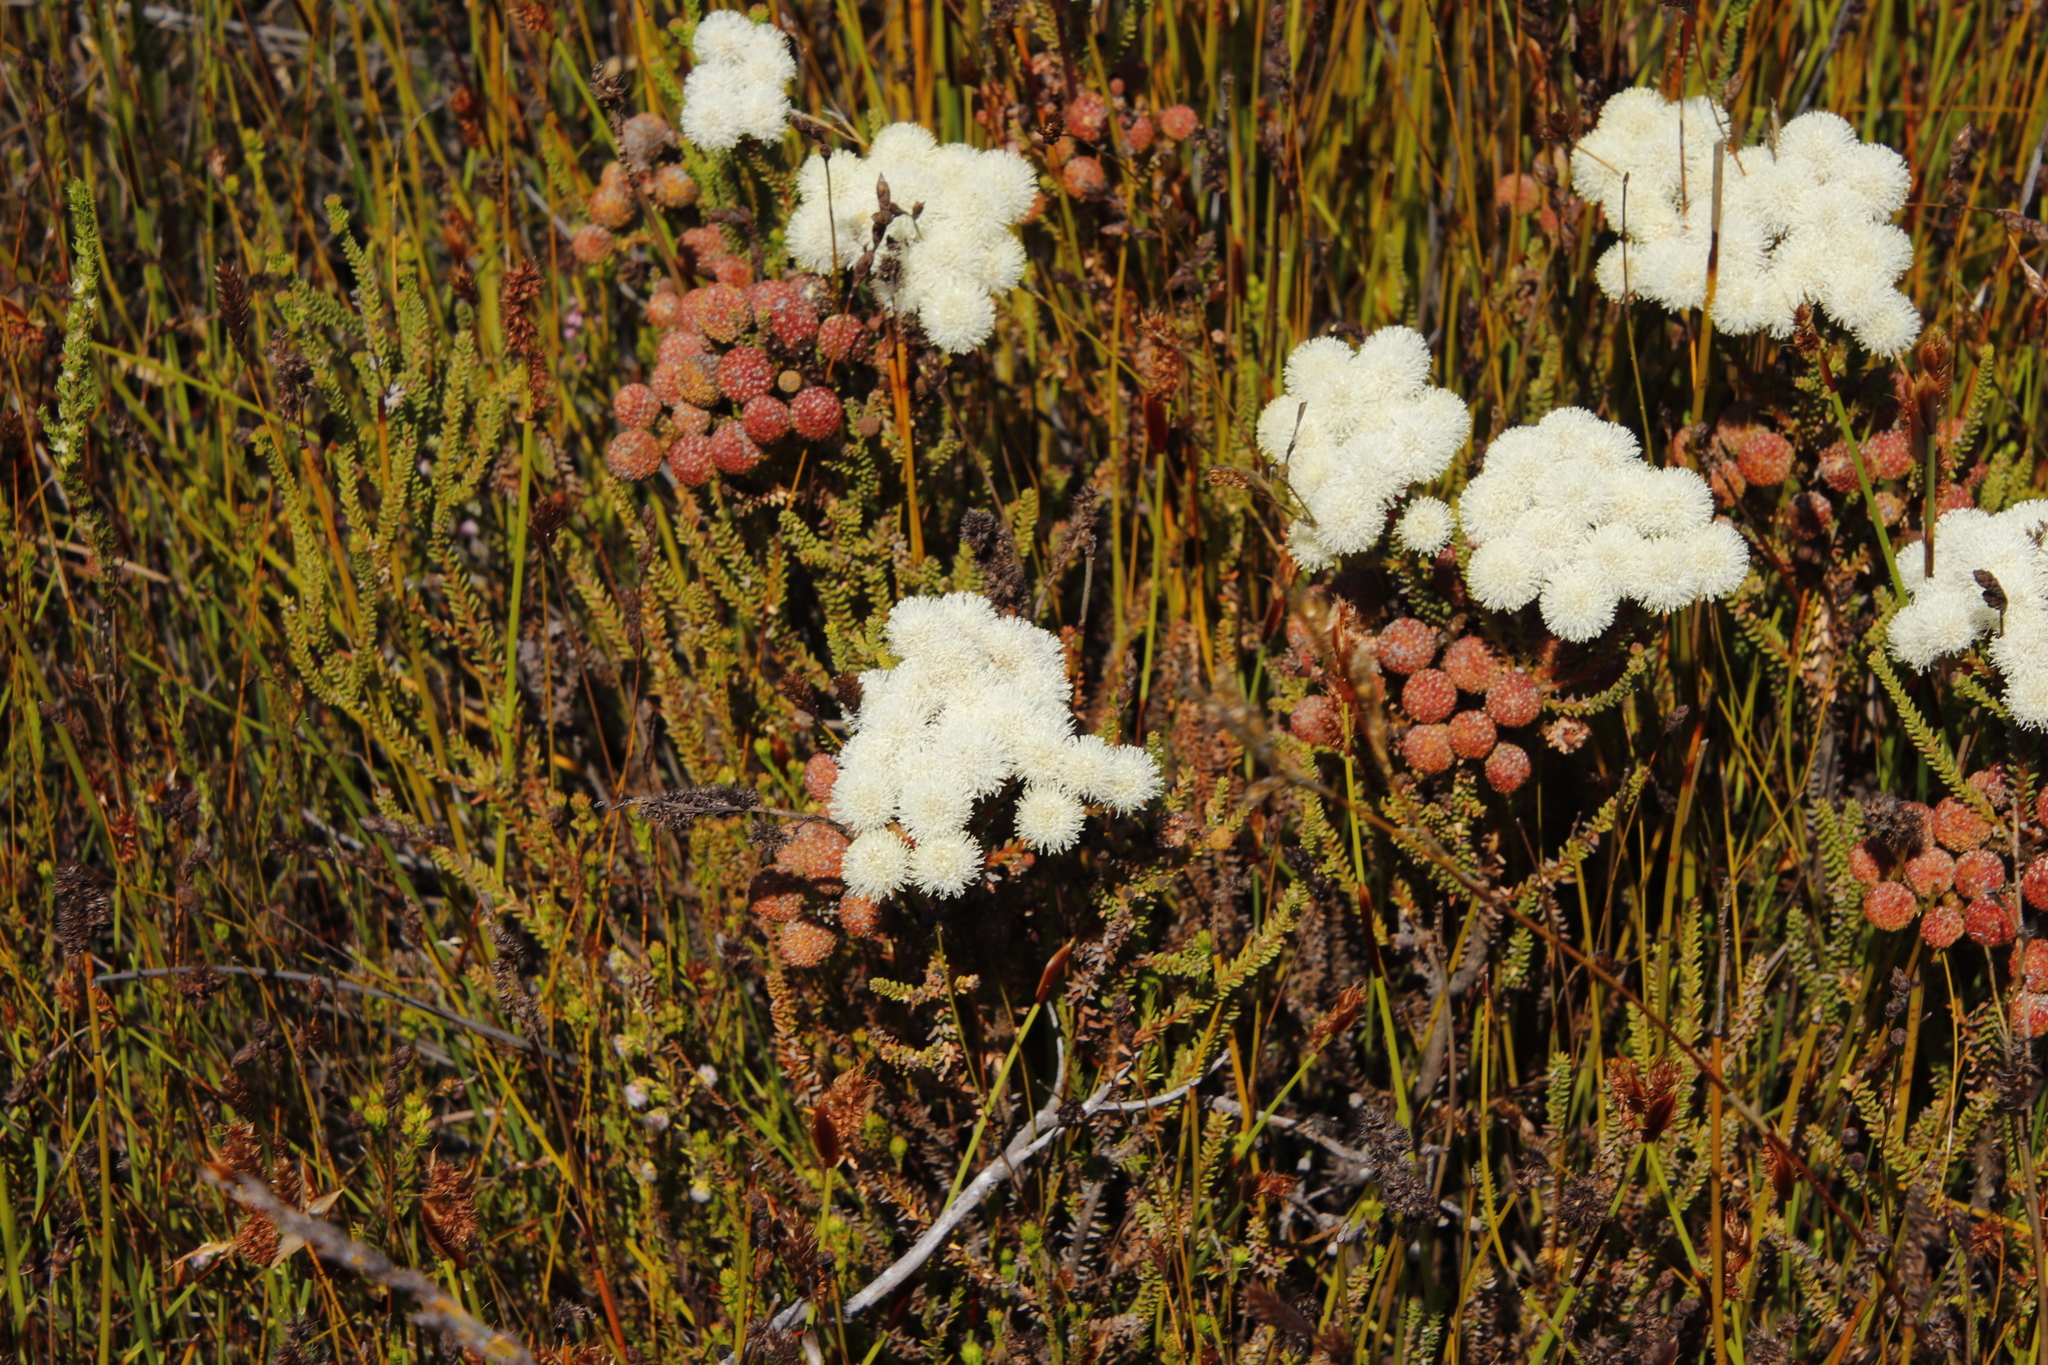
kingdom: Plantae
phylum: Tracheophyta
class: Magnoliopsida
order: Bruniales
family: Bruniaceae
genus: Berzelia
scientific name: Berzelia abrotanoides
